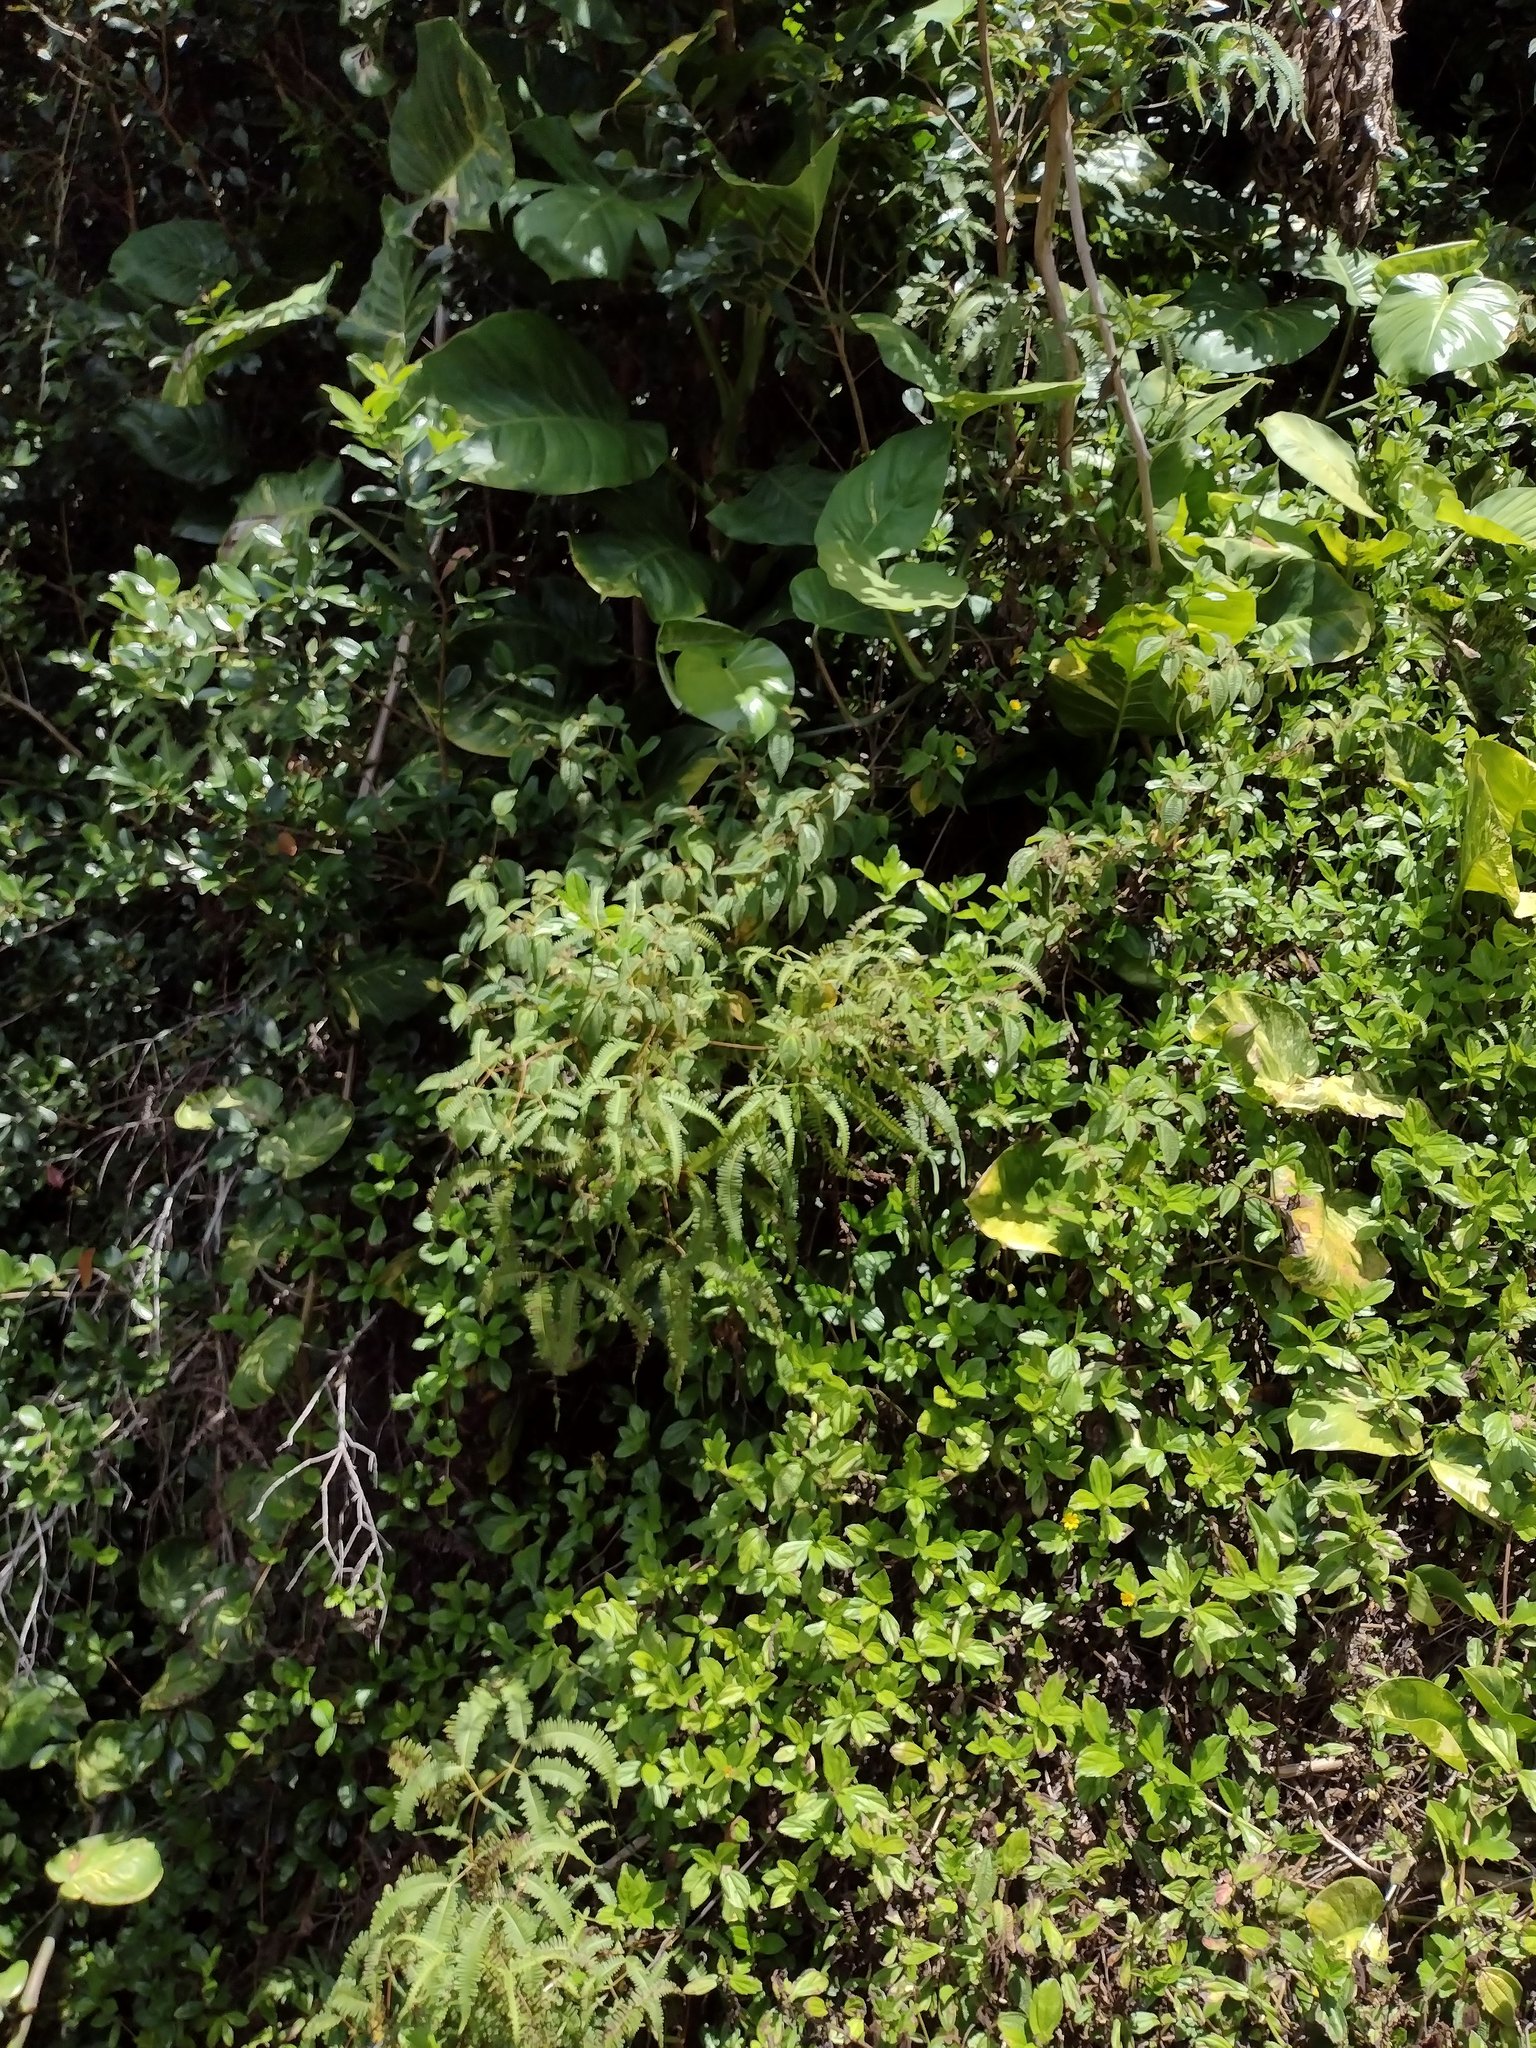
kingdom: Plantae
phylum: Tracheophyta
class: Polypodiopsida
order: Gleicheniales
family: Gleicheniaceae
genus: Dicranopteris
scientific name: Dicranopteris linearis
